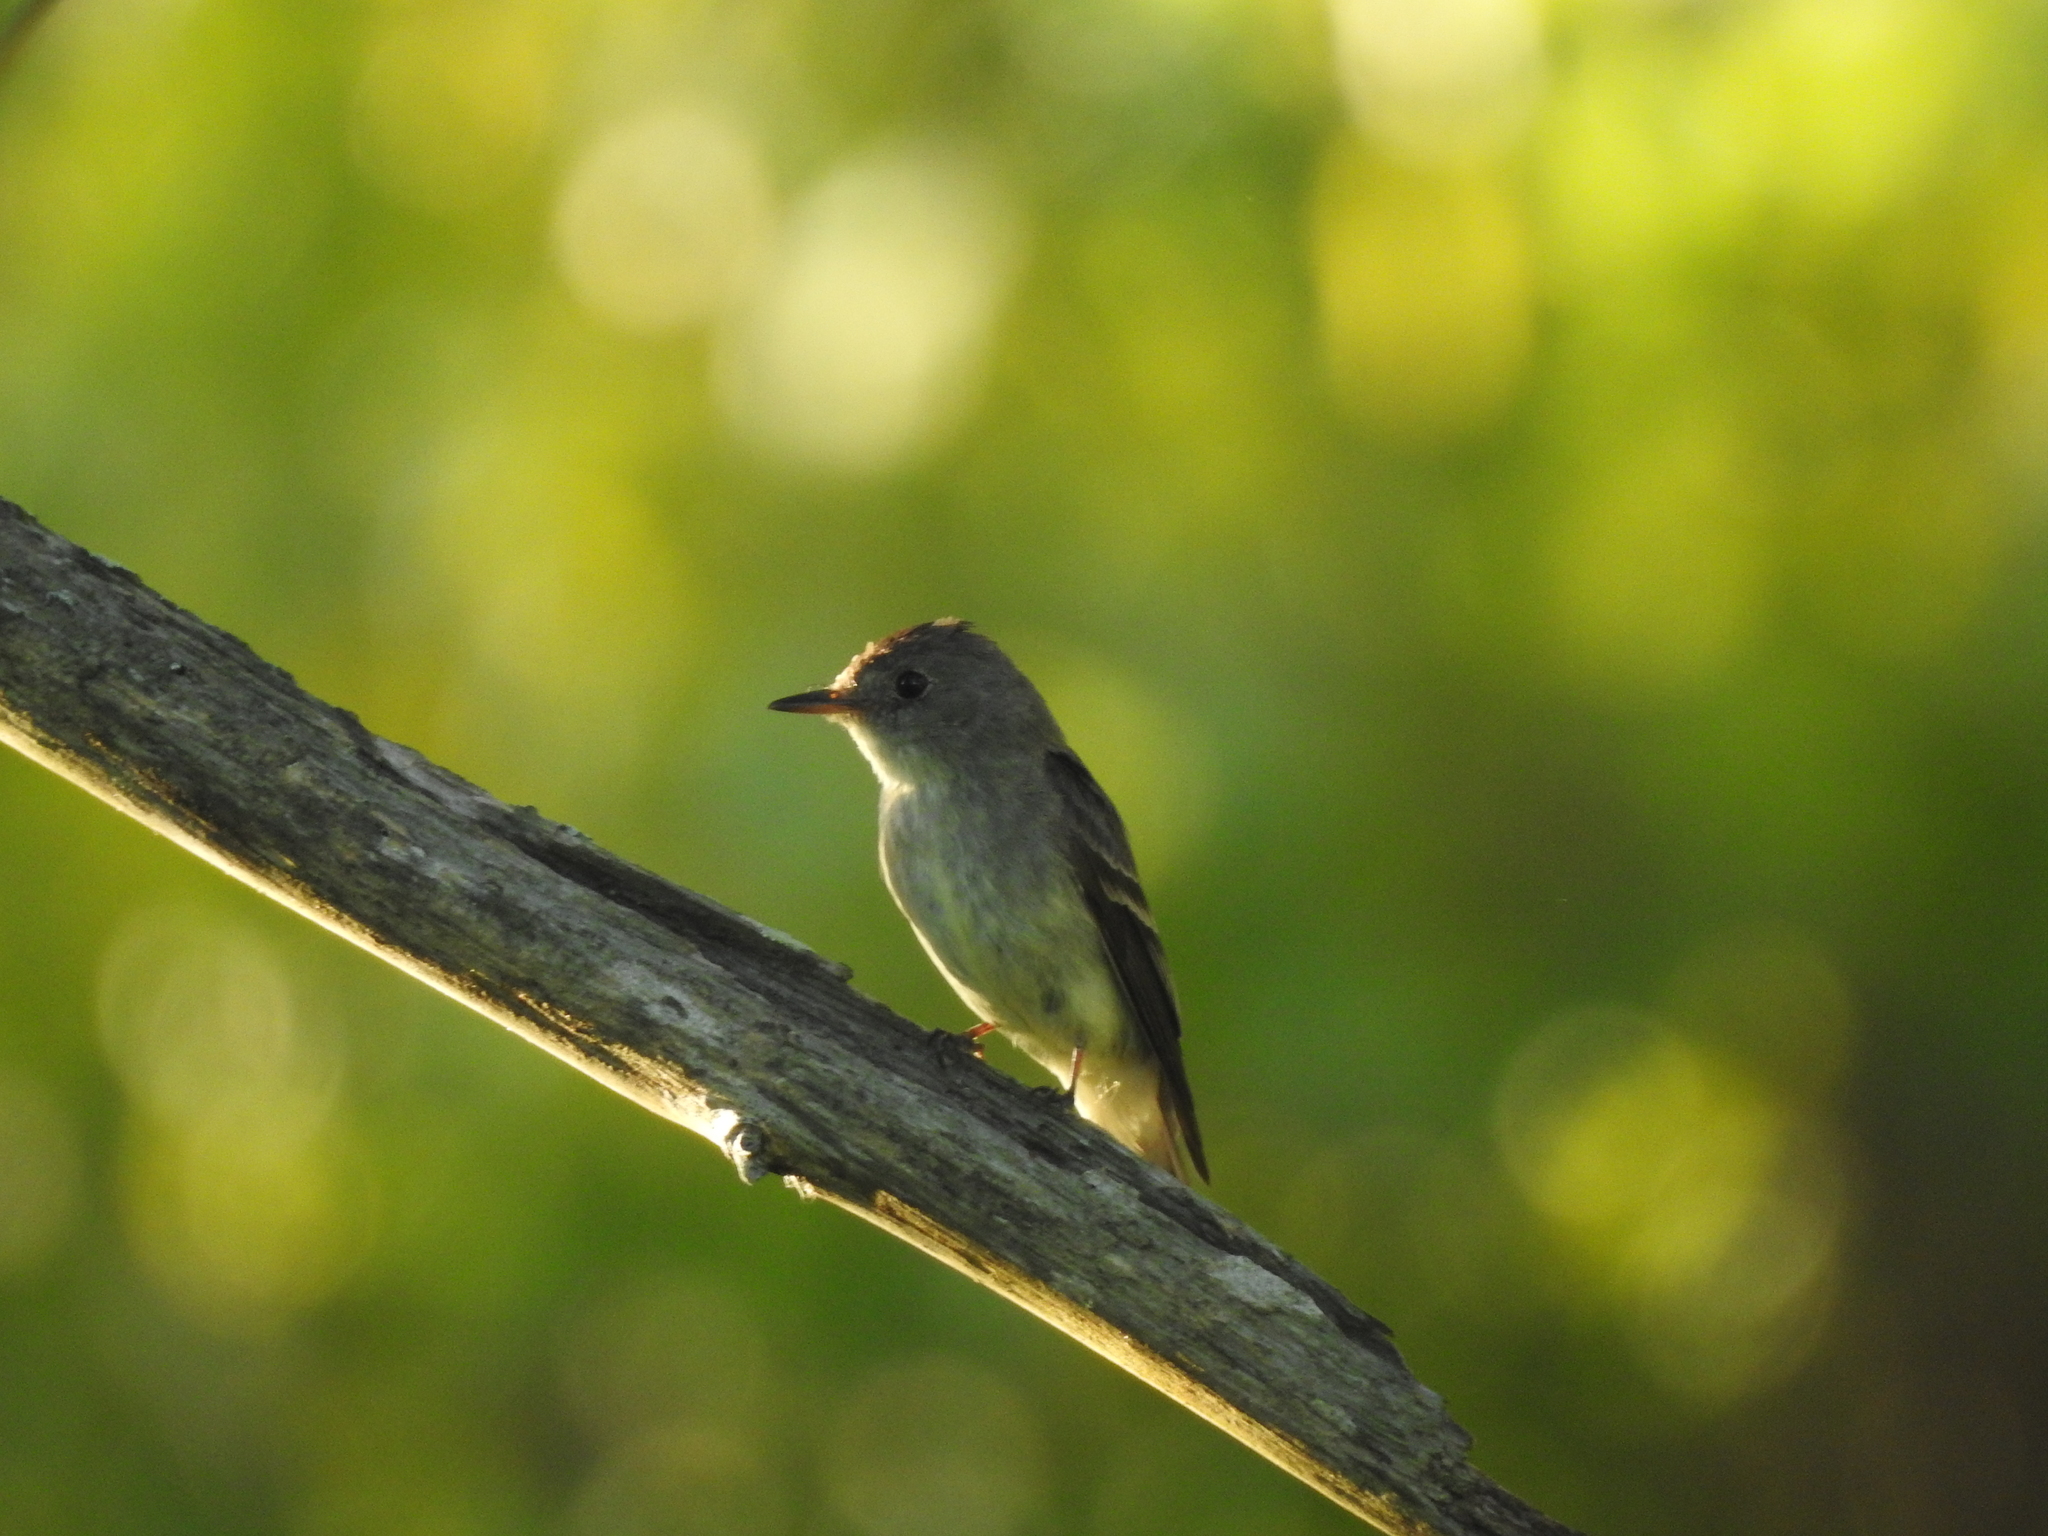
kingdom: Animalia
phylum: Chordata
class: Aves
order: Passeriformes
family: Tyrannidae
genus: Contopus
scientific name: Contopus virens
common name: Eastern wood-pewee
